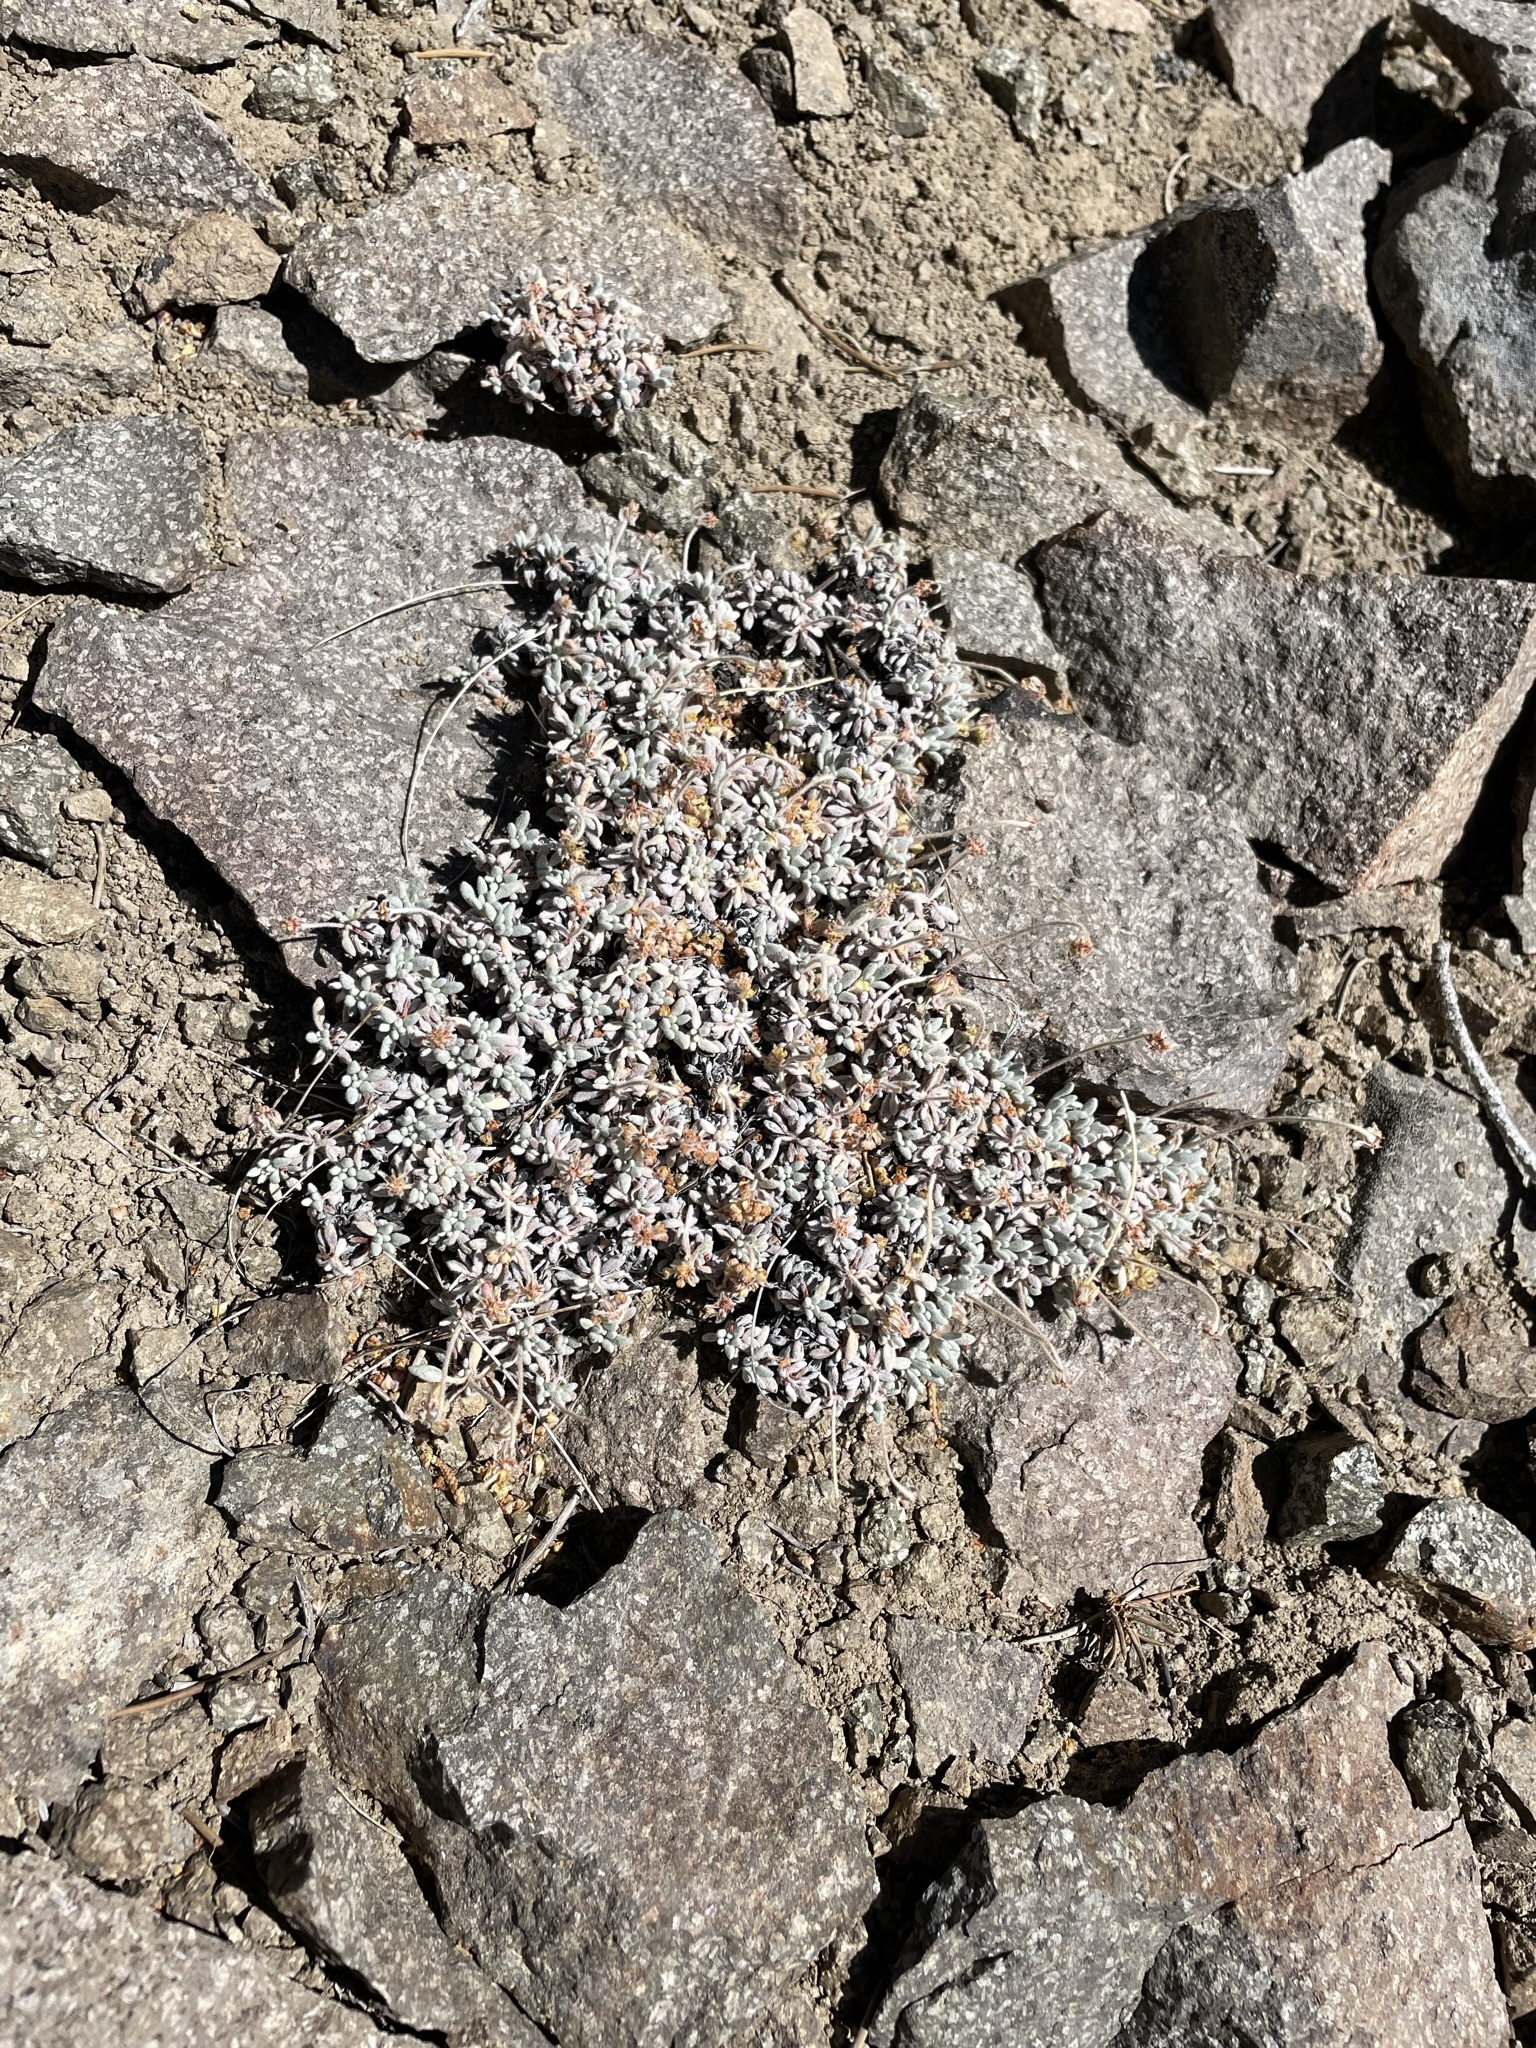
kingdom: Plantae
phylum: Tracheophyta
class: Magnoliopsida
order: Caryophyllales
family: Polygonaceae
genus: Eriogonum
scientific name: Eriogonum caespitosum
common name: Matted wild buckwheat
